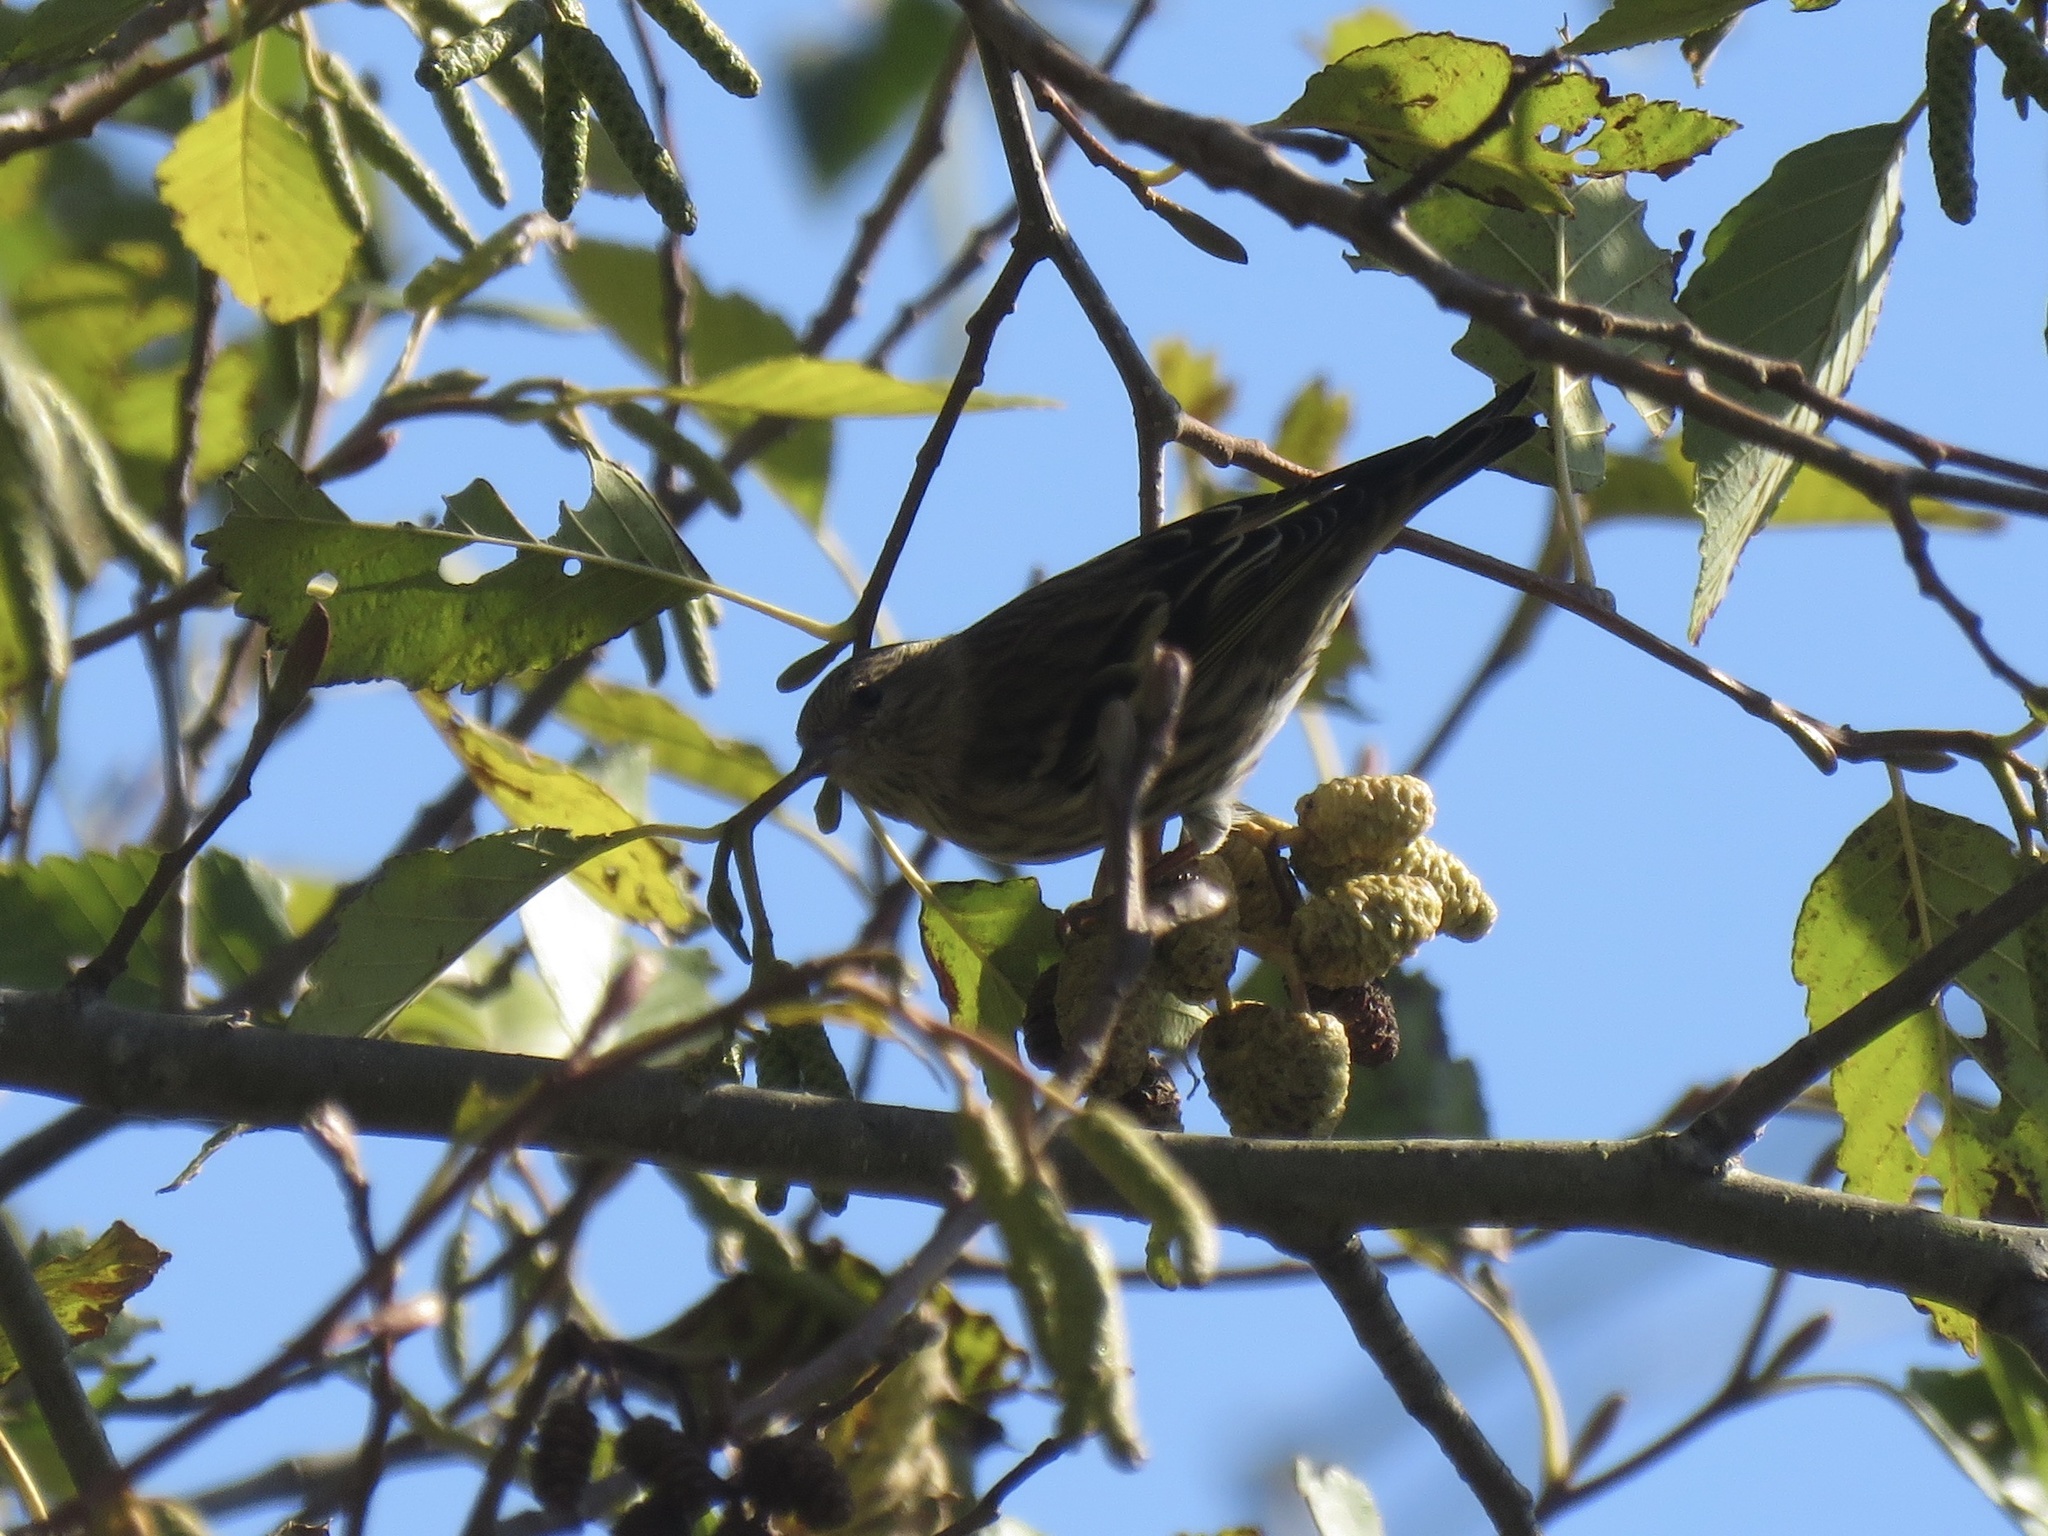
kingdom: Animalia
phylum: Chordata
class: Aves
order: Passeriformes
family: Fringillidae
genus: Spinus
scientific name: Spinus pinus
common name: Pine siskin
